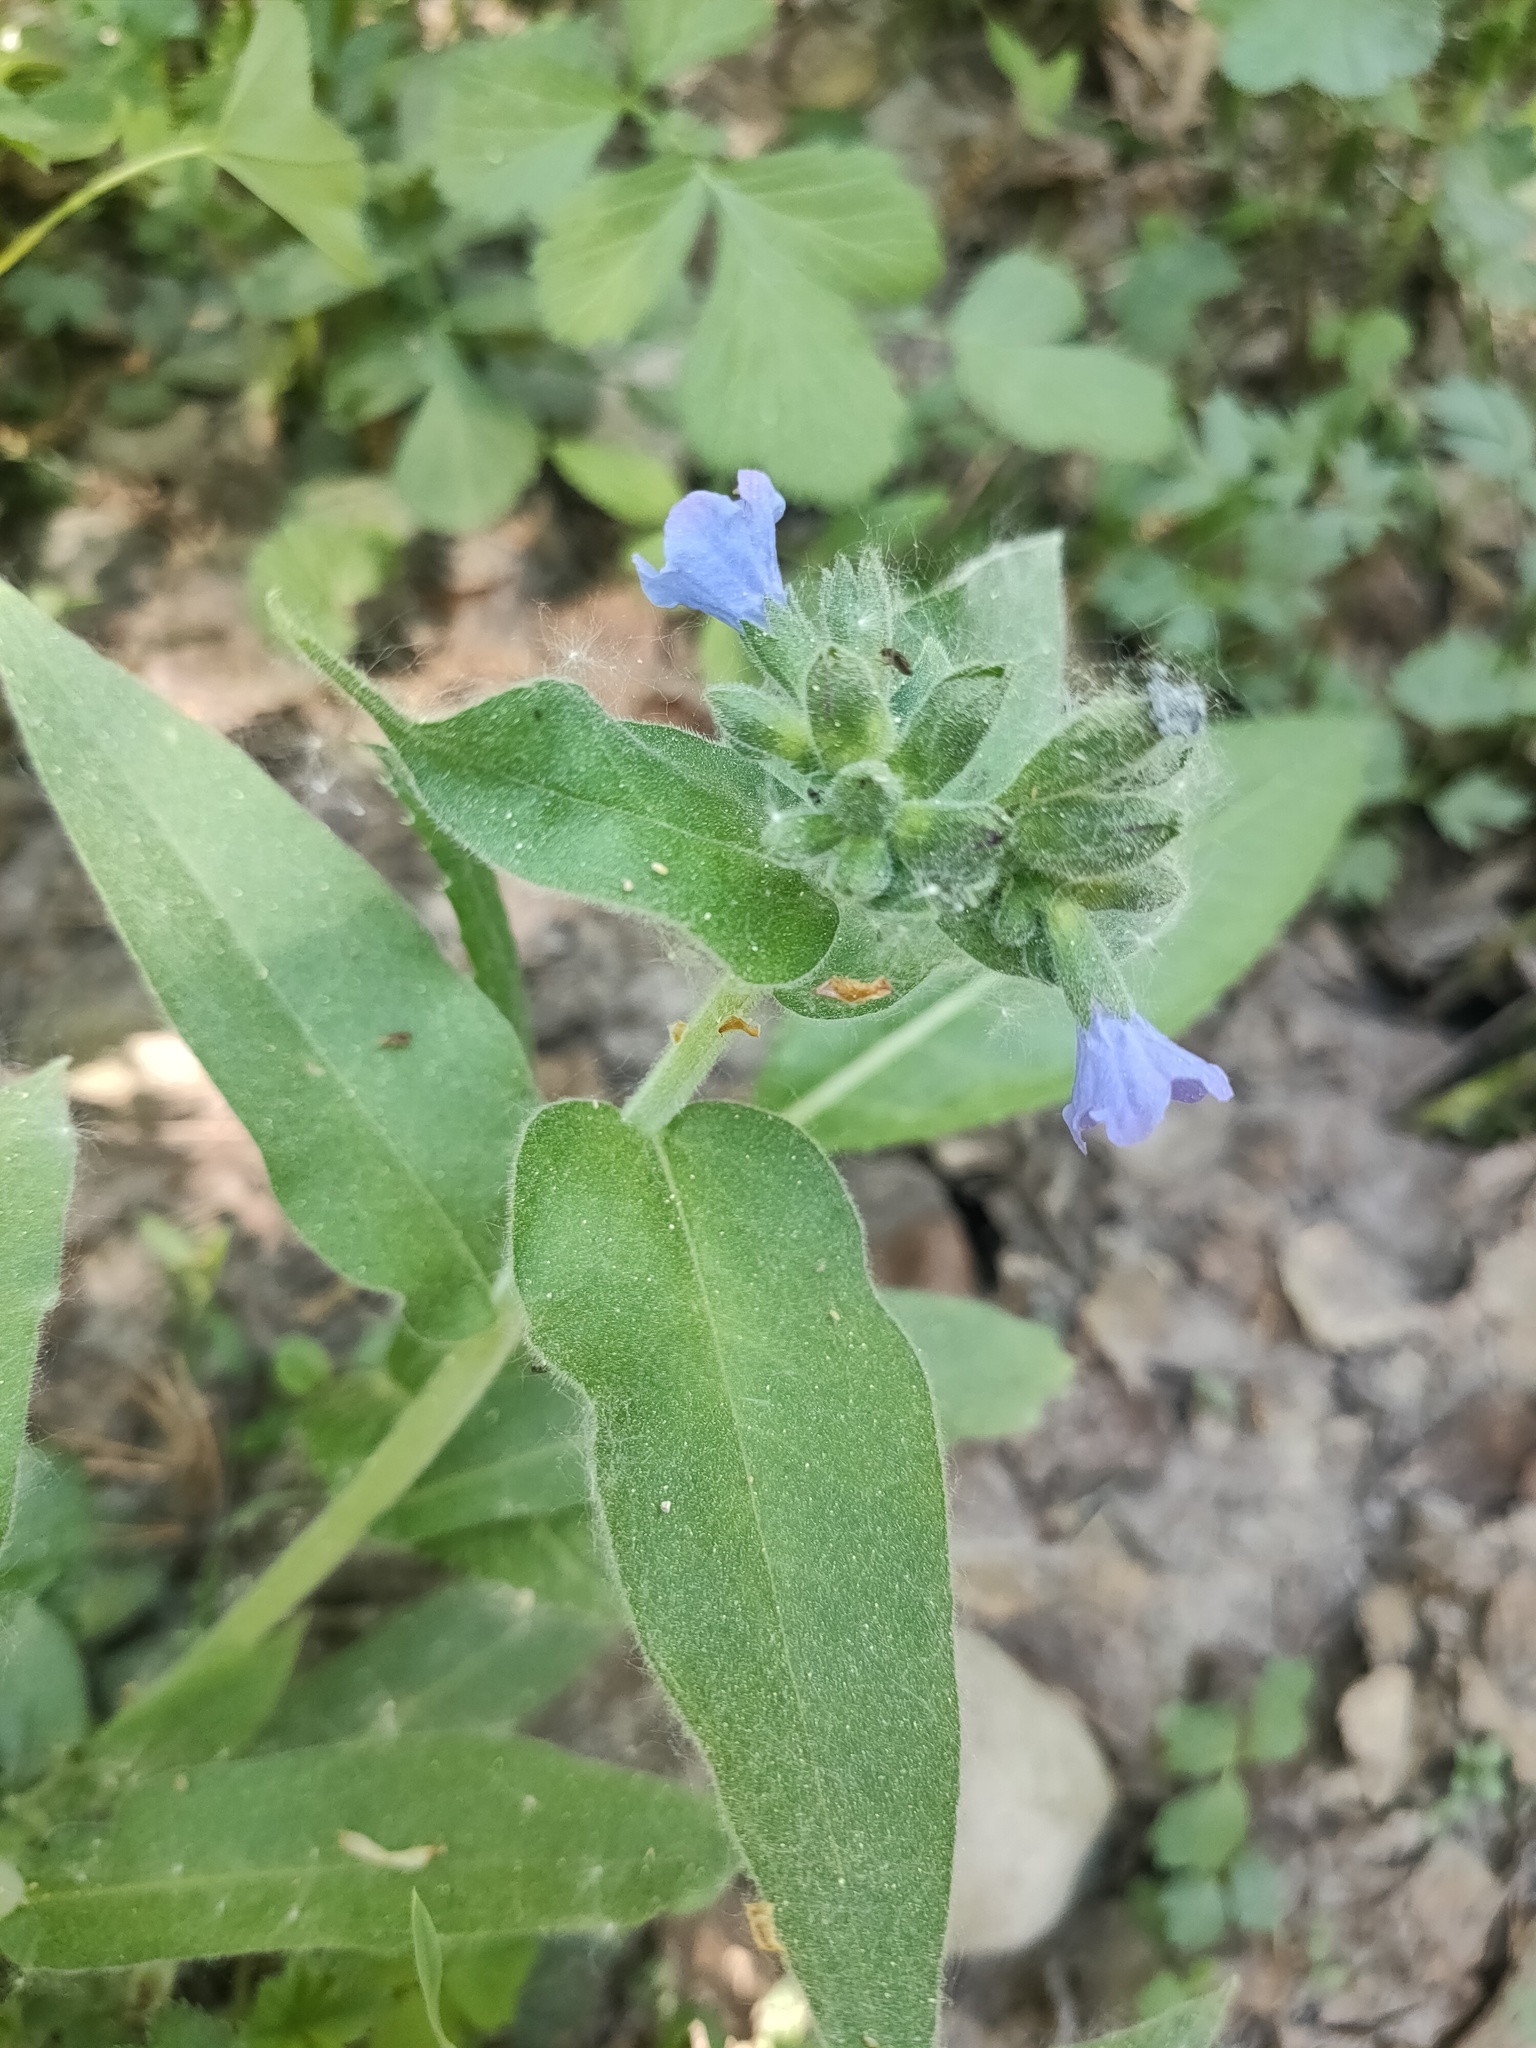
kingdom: Plantae
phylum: Tracheophyta
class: Magnoliopsida
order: Boraginales
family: Boraginaceae
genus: Pulmonaria
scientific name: Pulmonaria mollis
